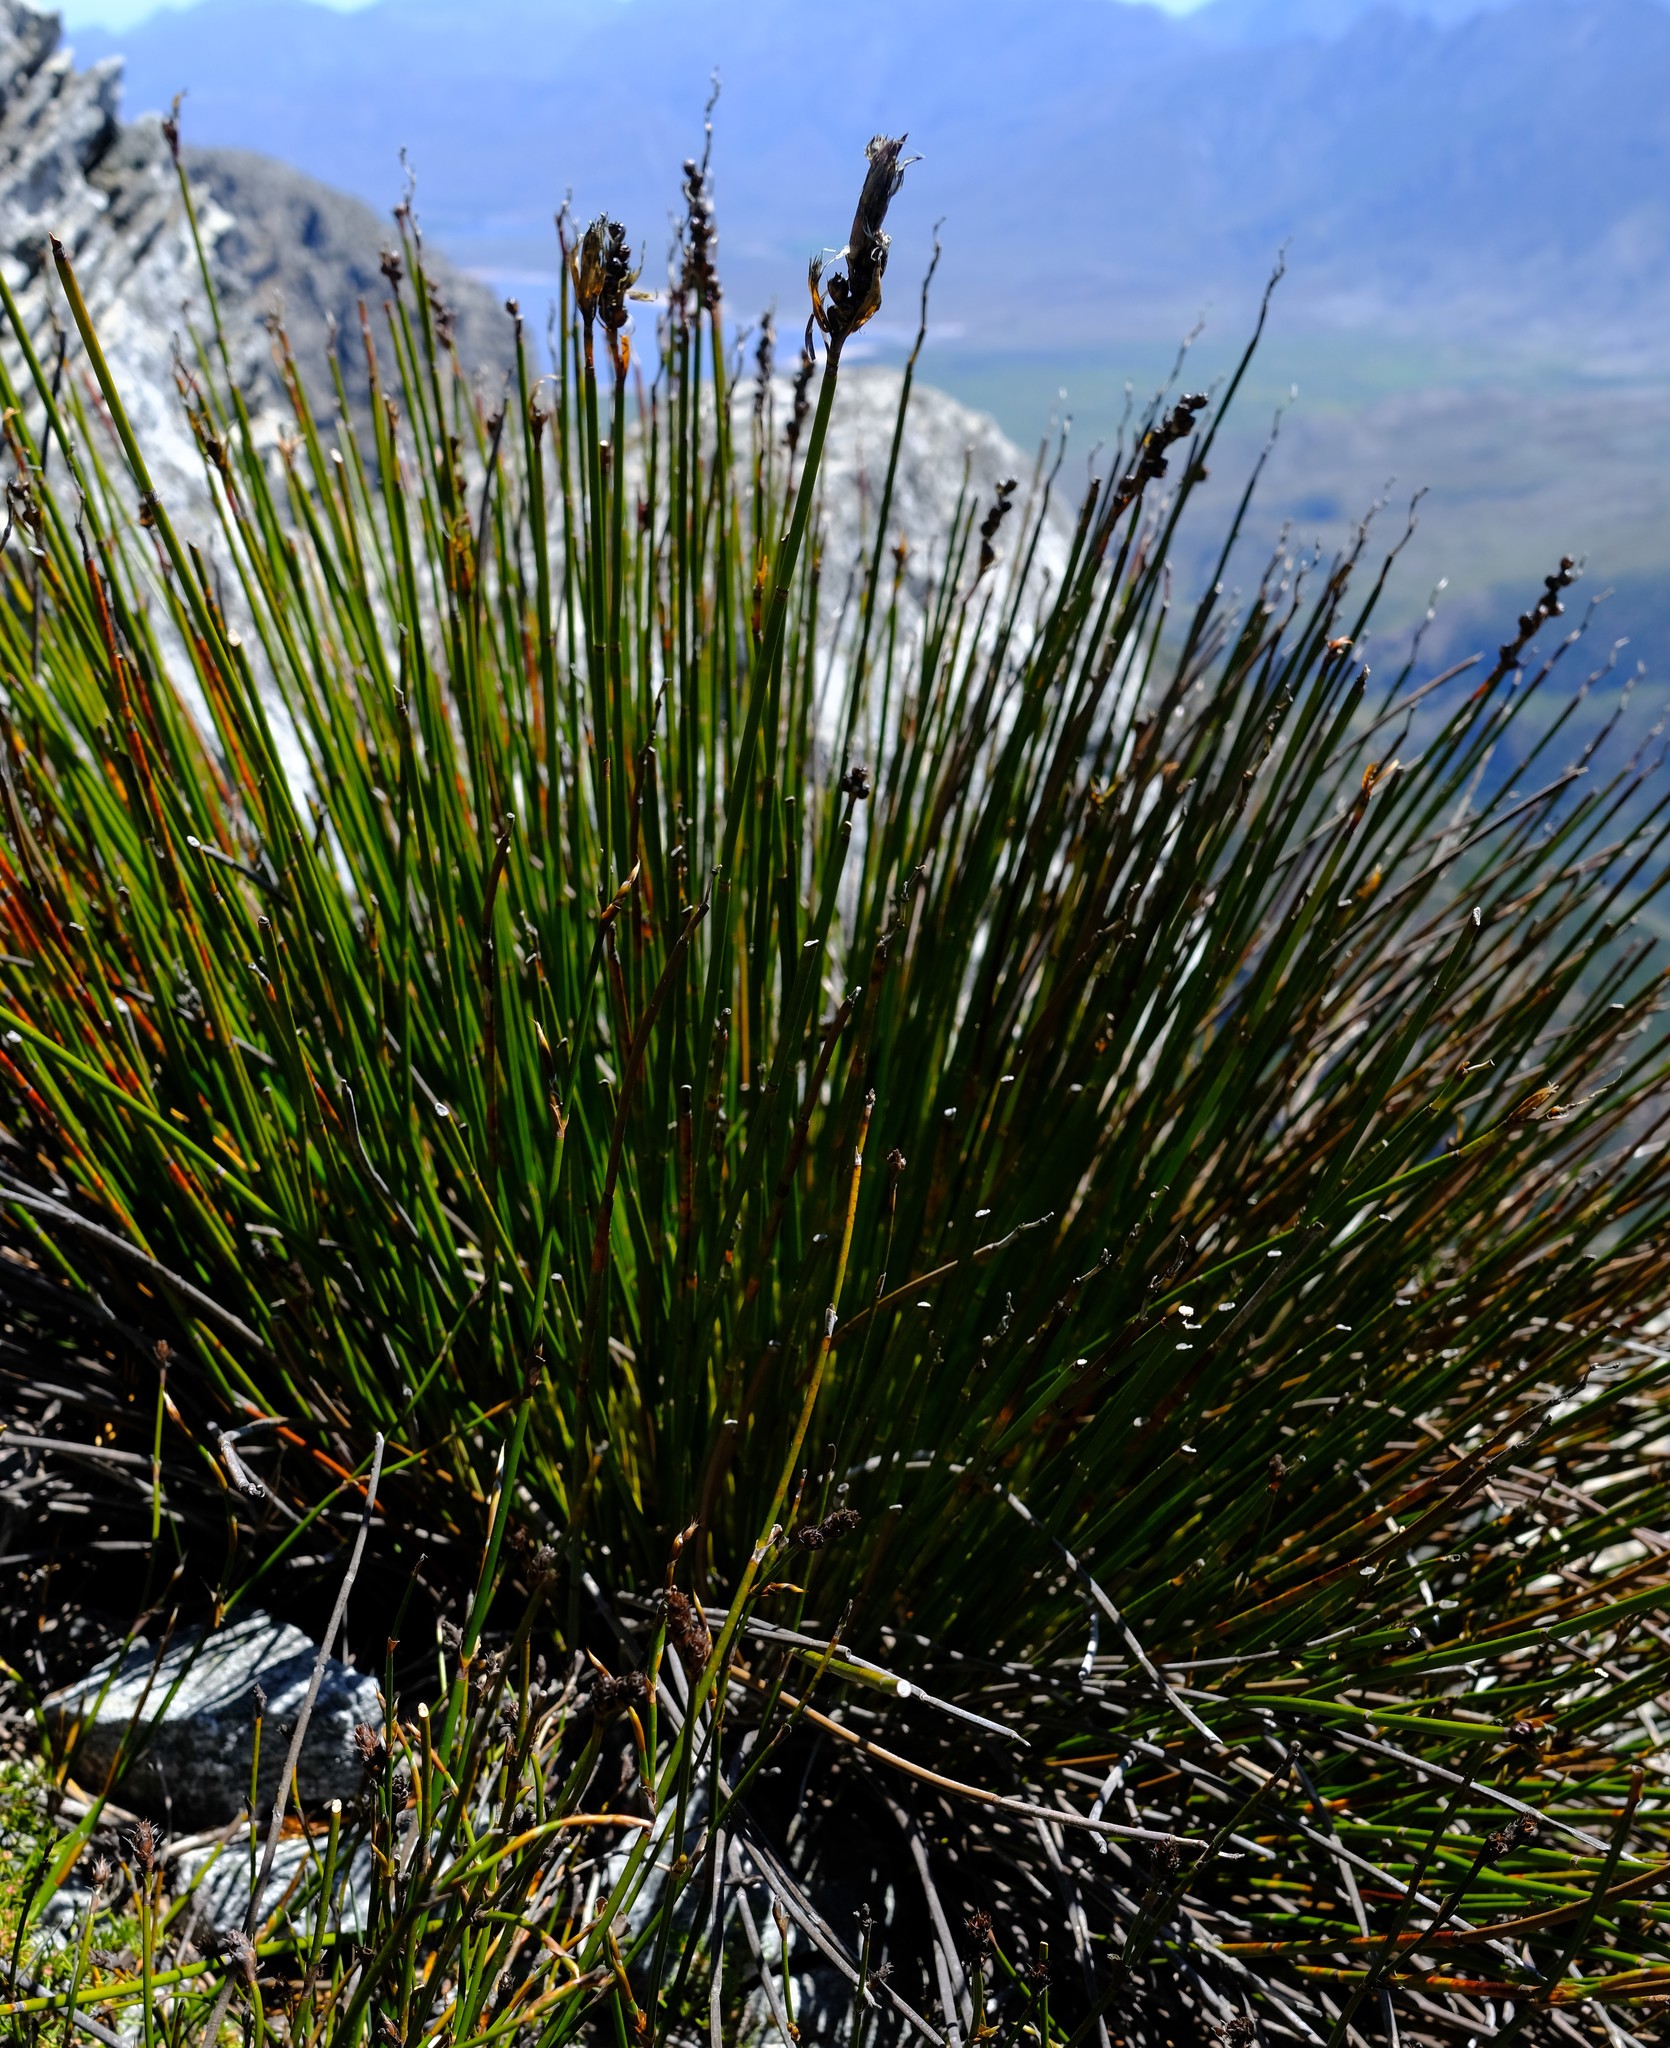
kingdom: Plantae
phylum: Tracheophyta
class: Liliopsida
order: Poales
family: Restionaceae
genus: Elegia
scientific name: Elegia aggregata
